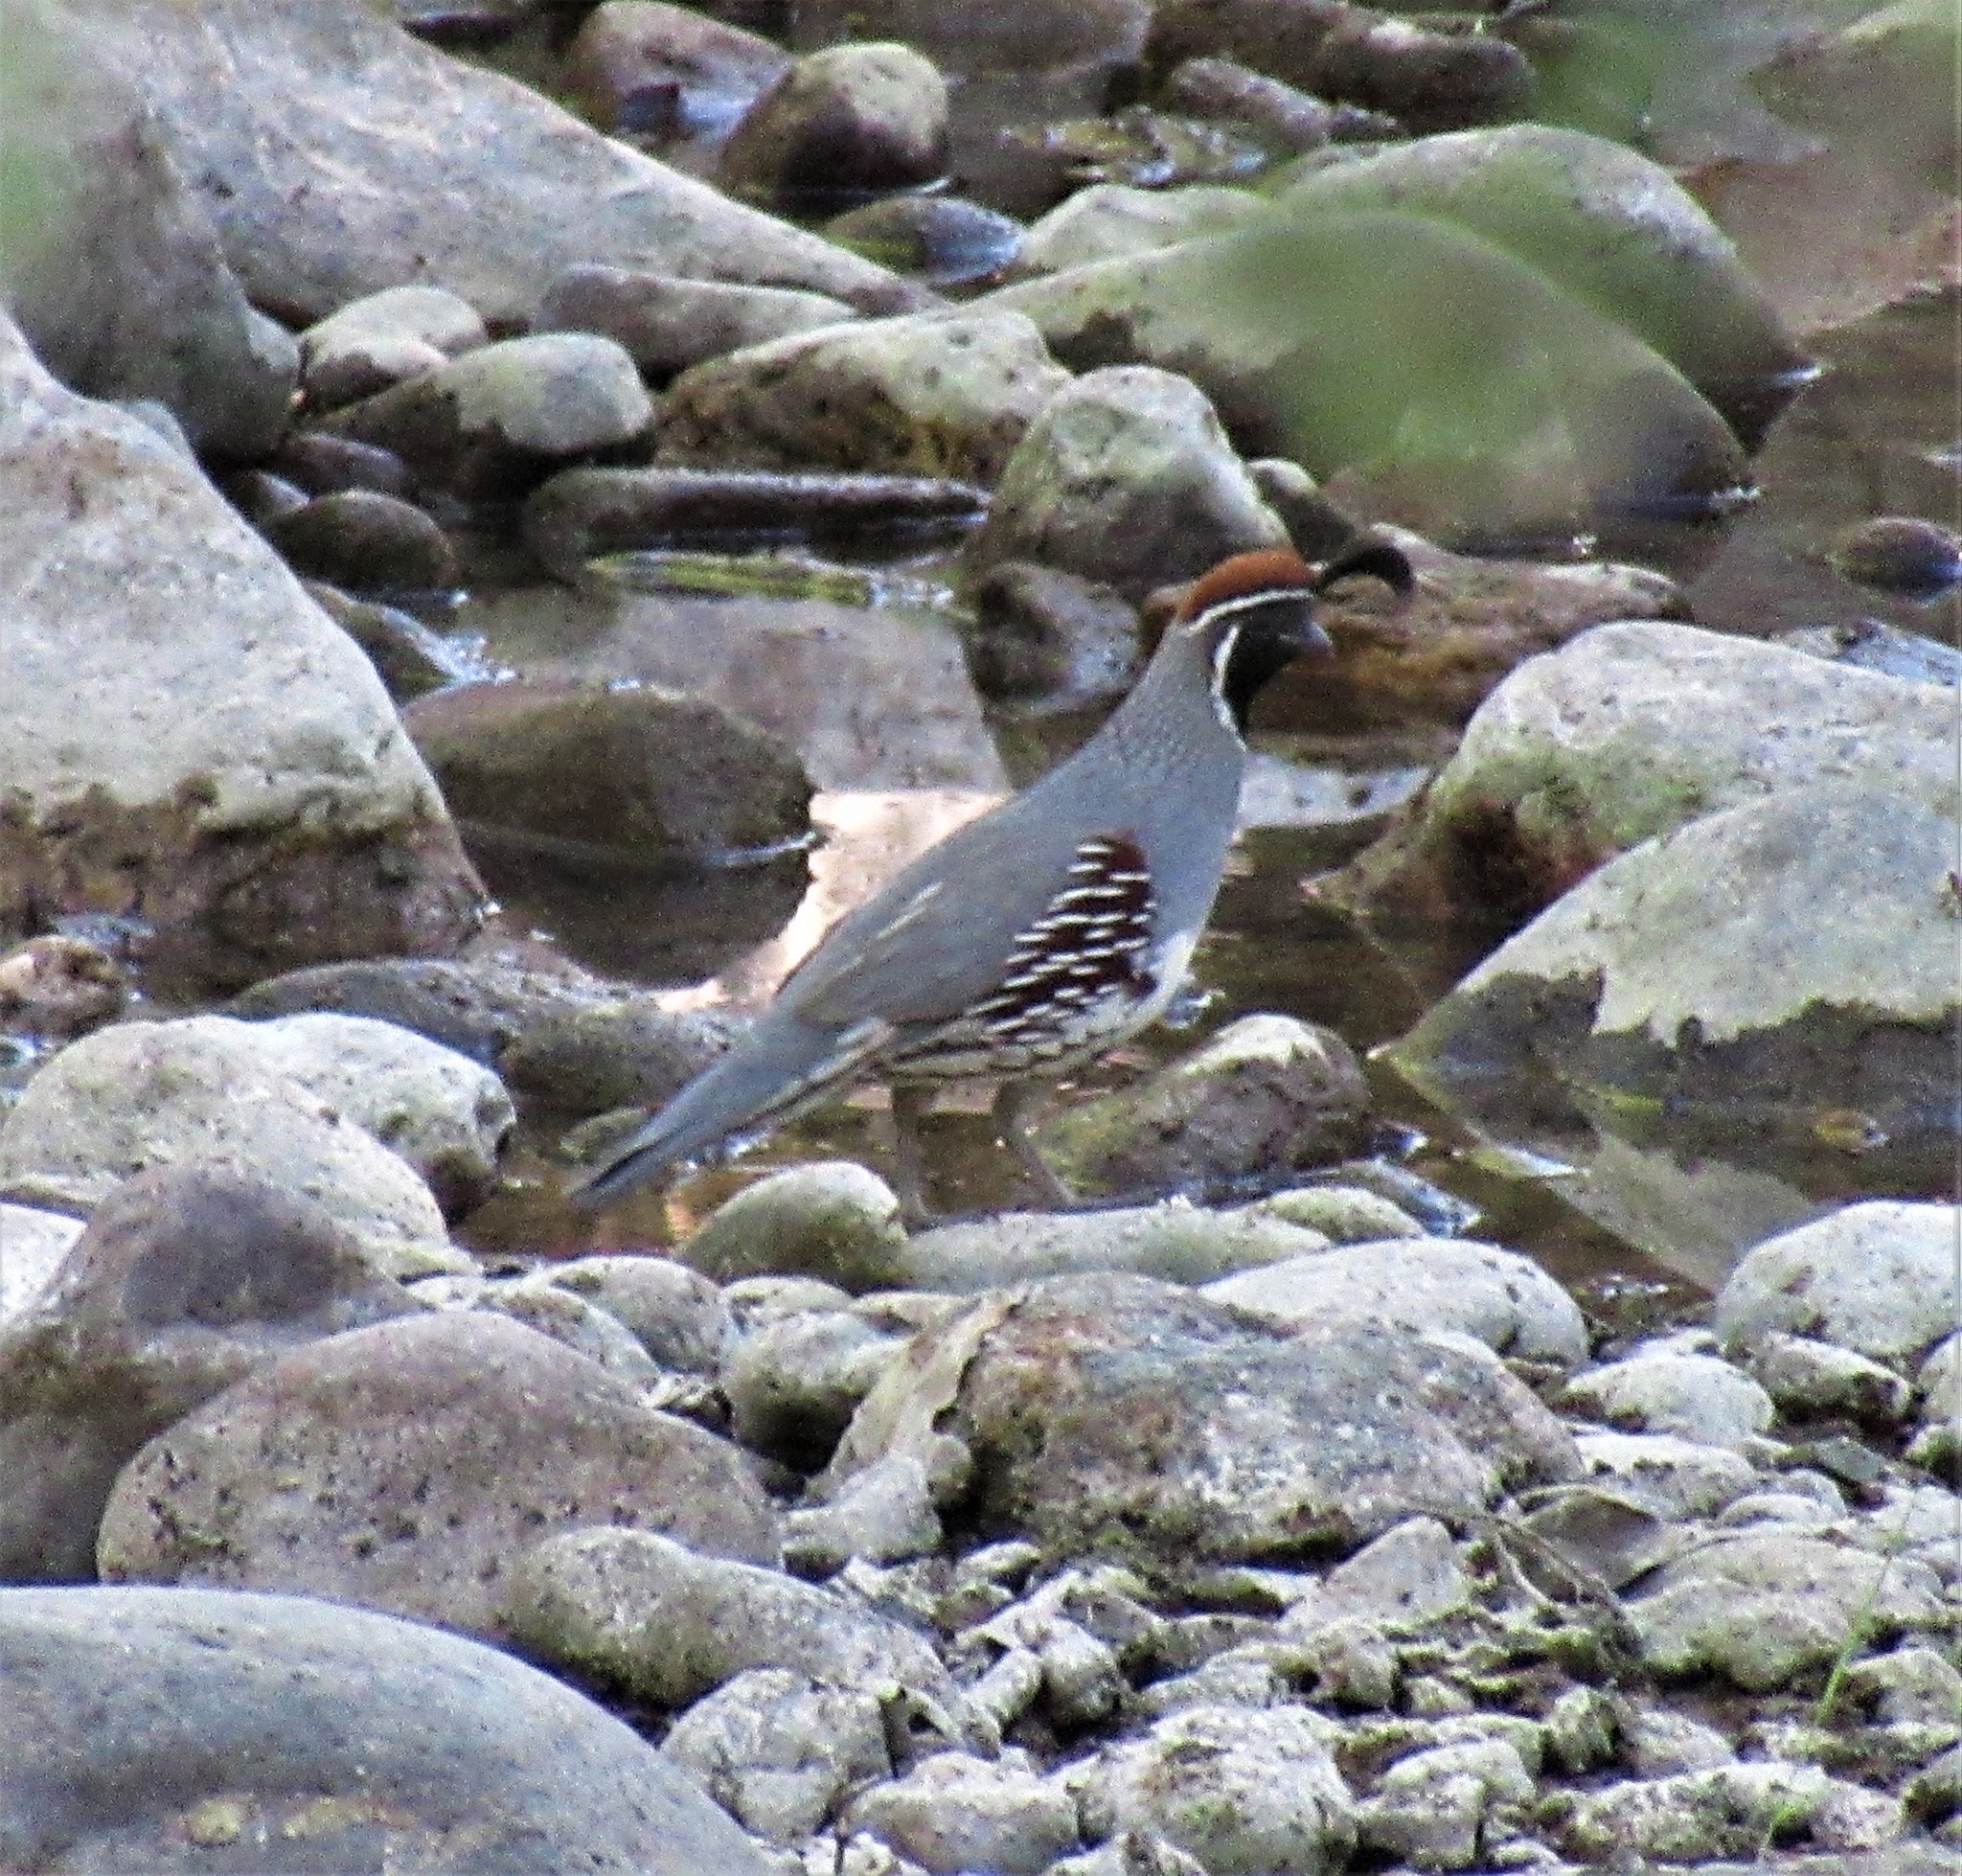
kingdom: Animalia
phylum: Chordata
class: Aves
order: Galliformes
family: Odontophoridae
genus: Callipepla
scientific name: Callipepla gambelii
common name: Gambel's quail
